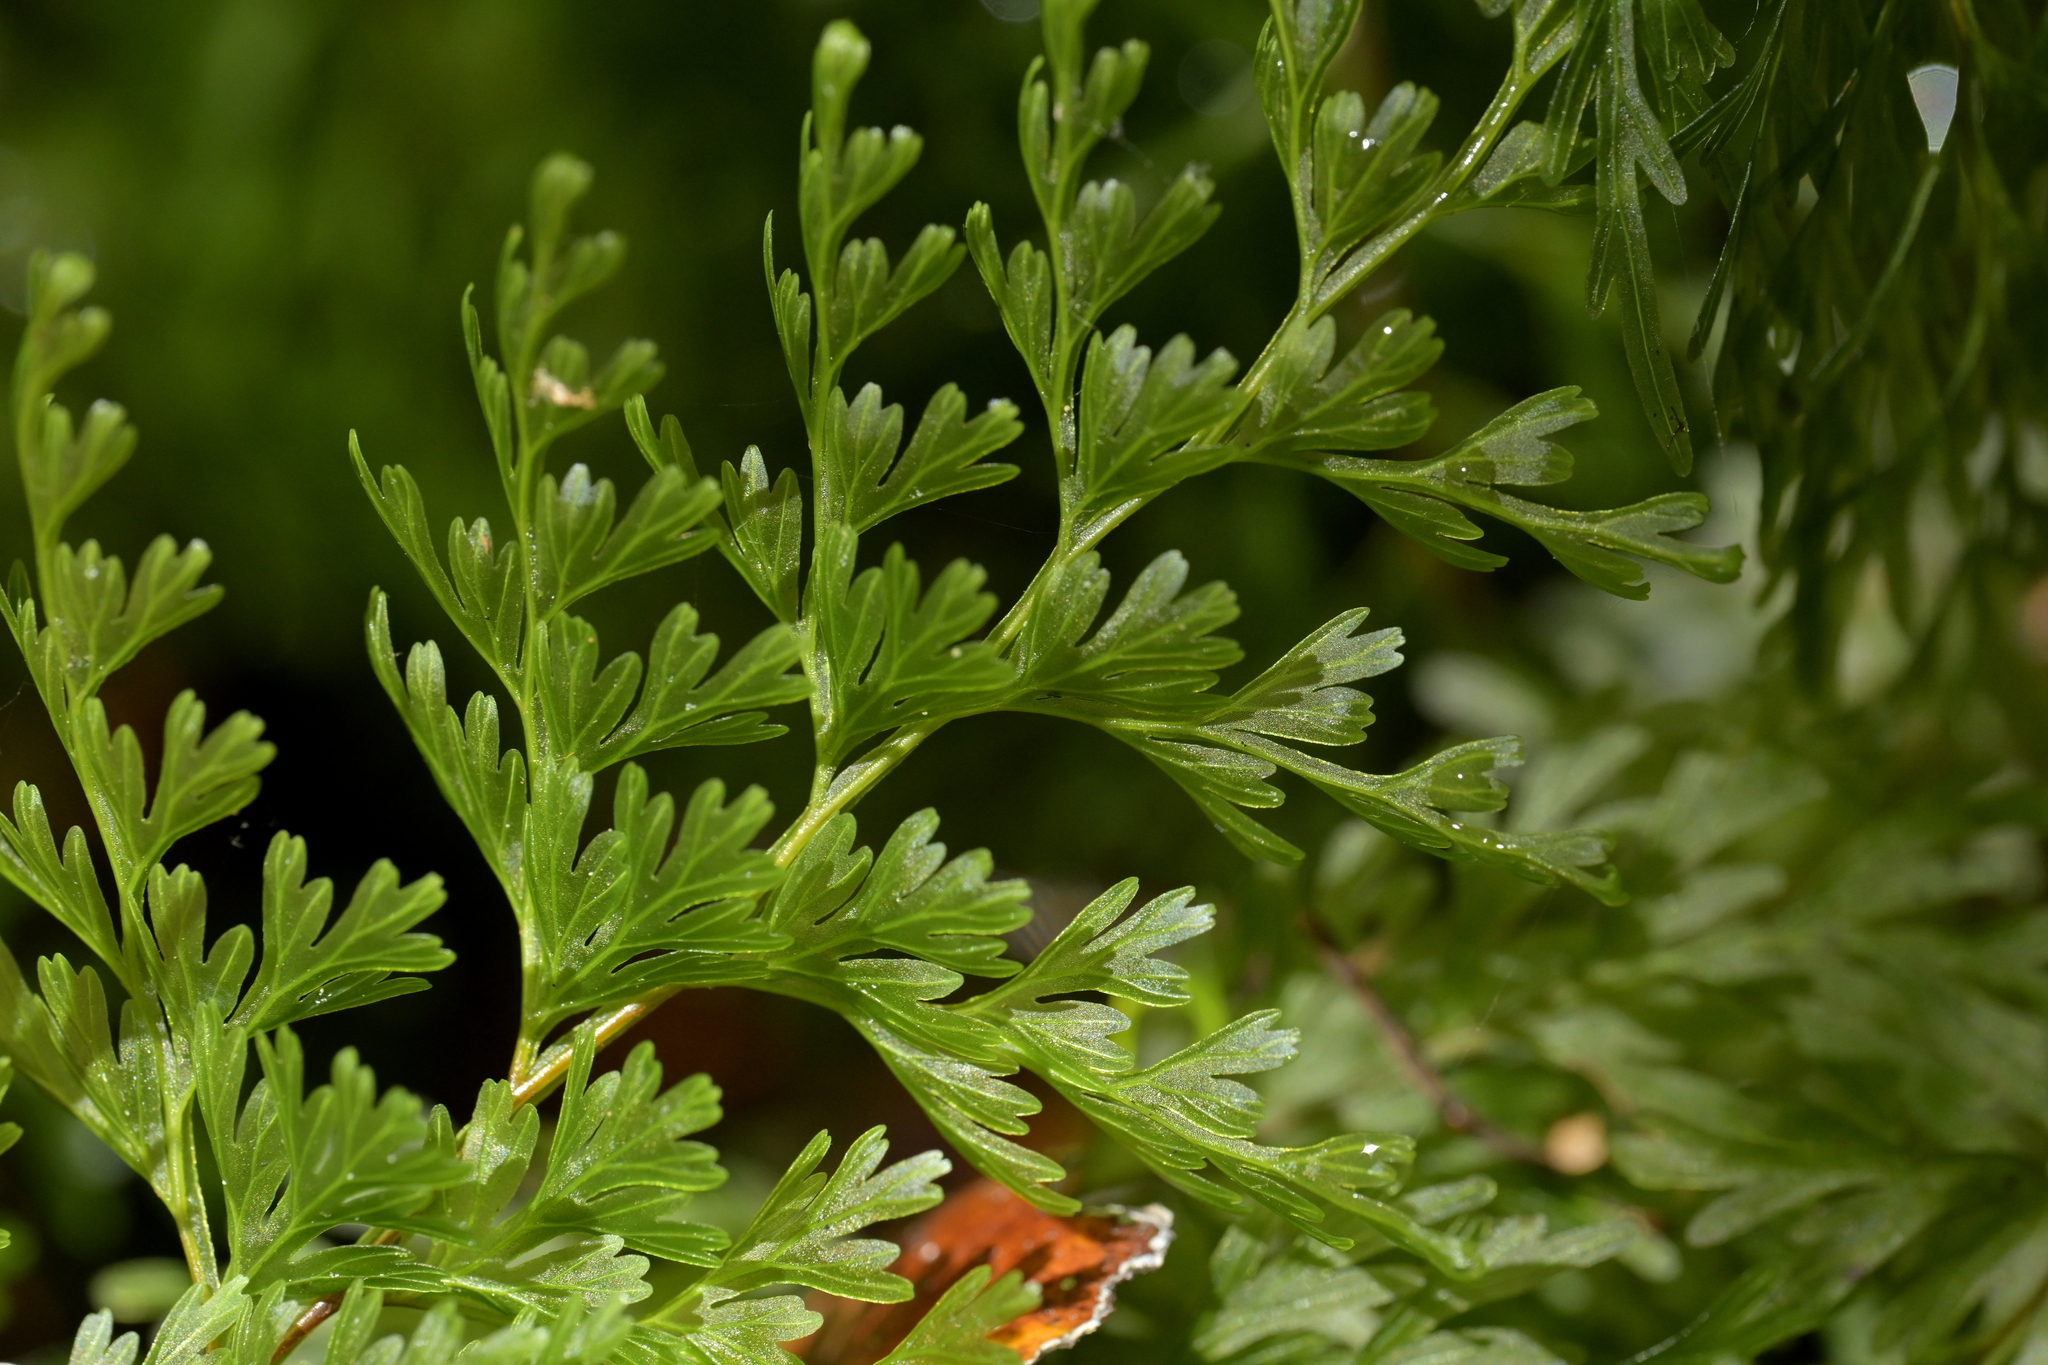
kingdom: Plantae
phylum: Tracheophyta
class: Polypodiopsida
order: Hymenophyllales
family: Hymenophyllaceae
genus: Hymenophyllum
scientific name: Hymenophyllum demissum
